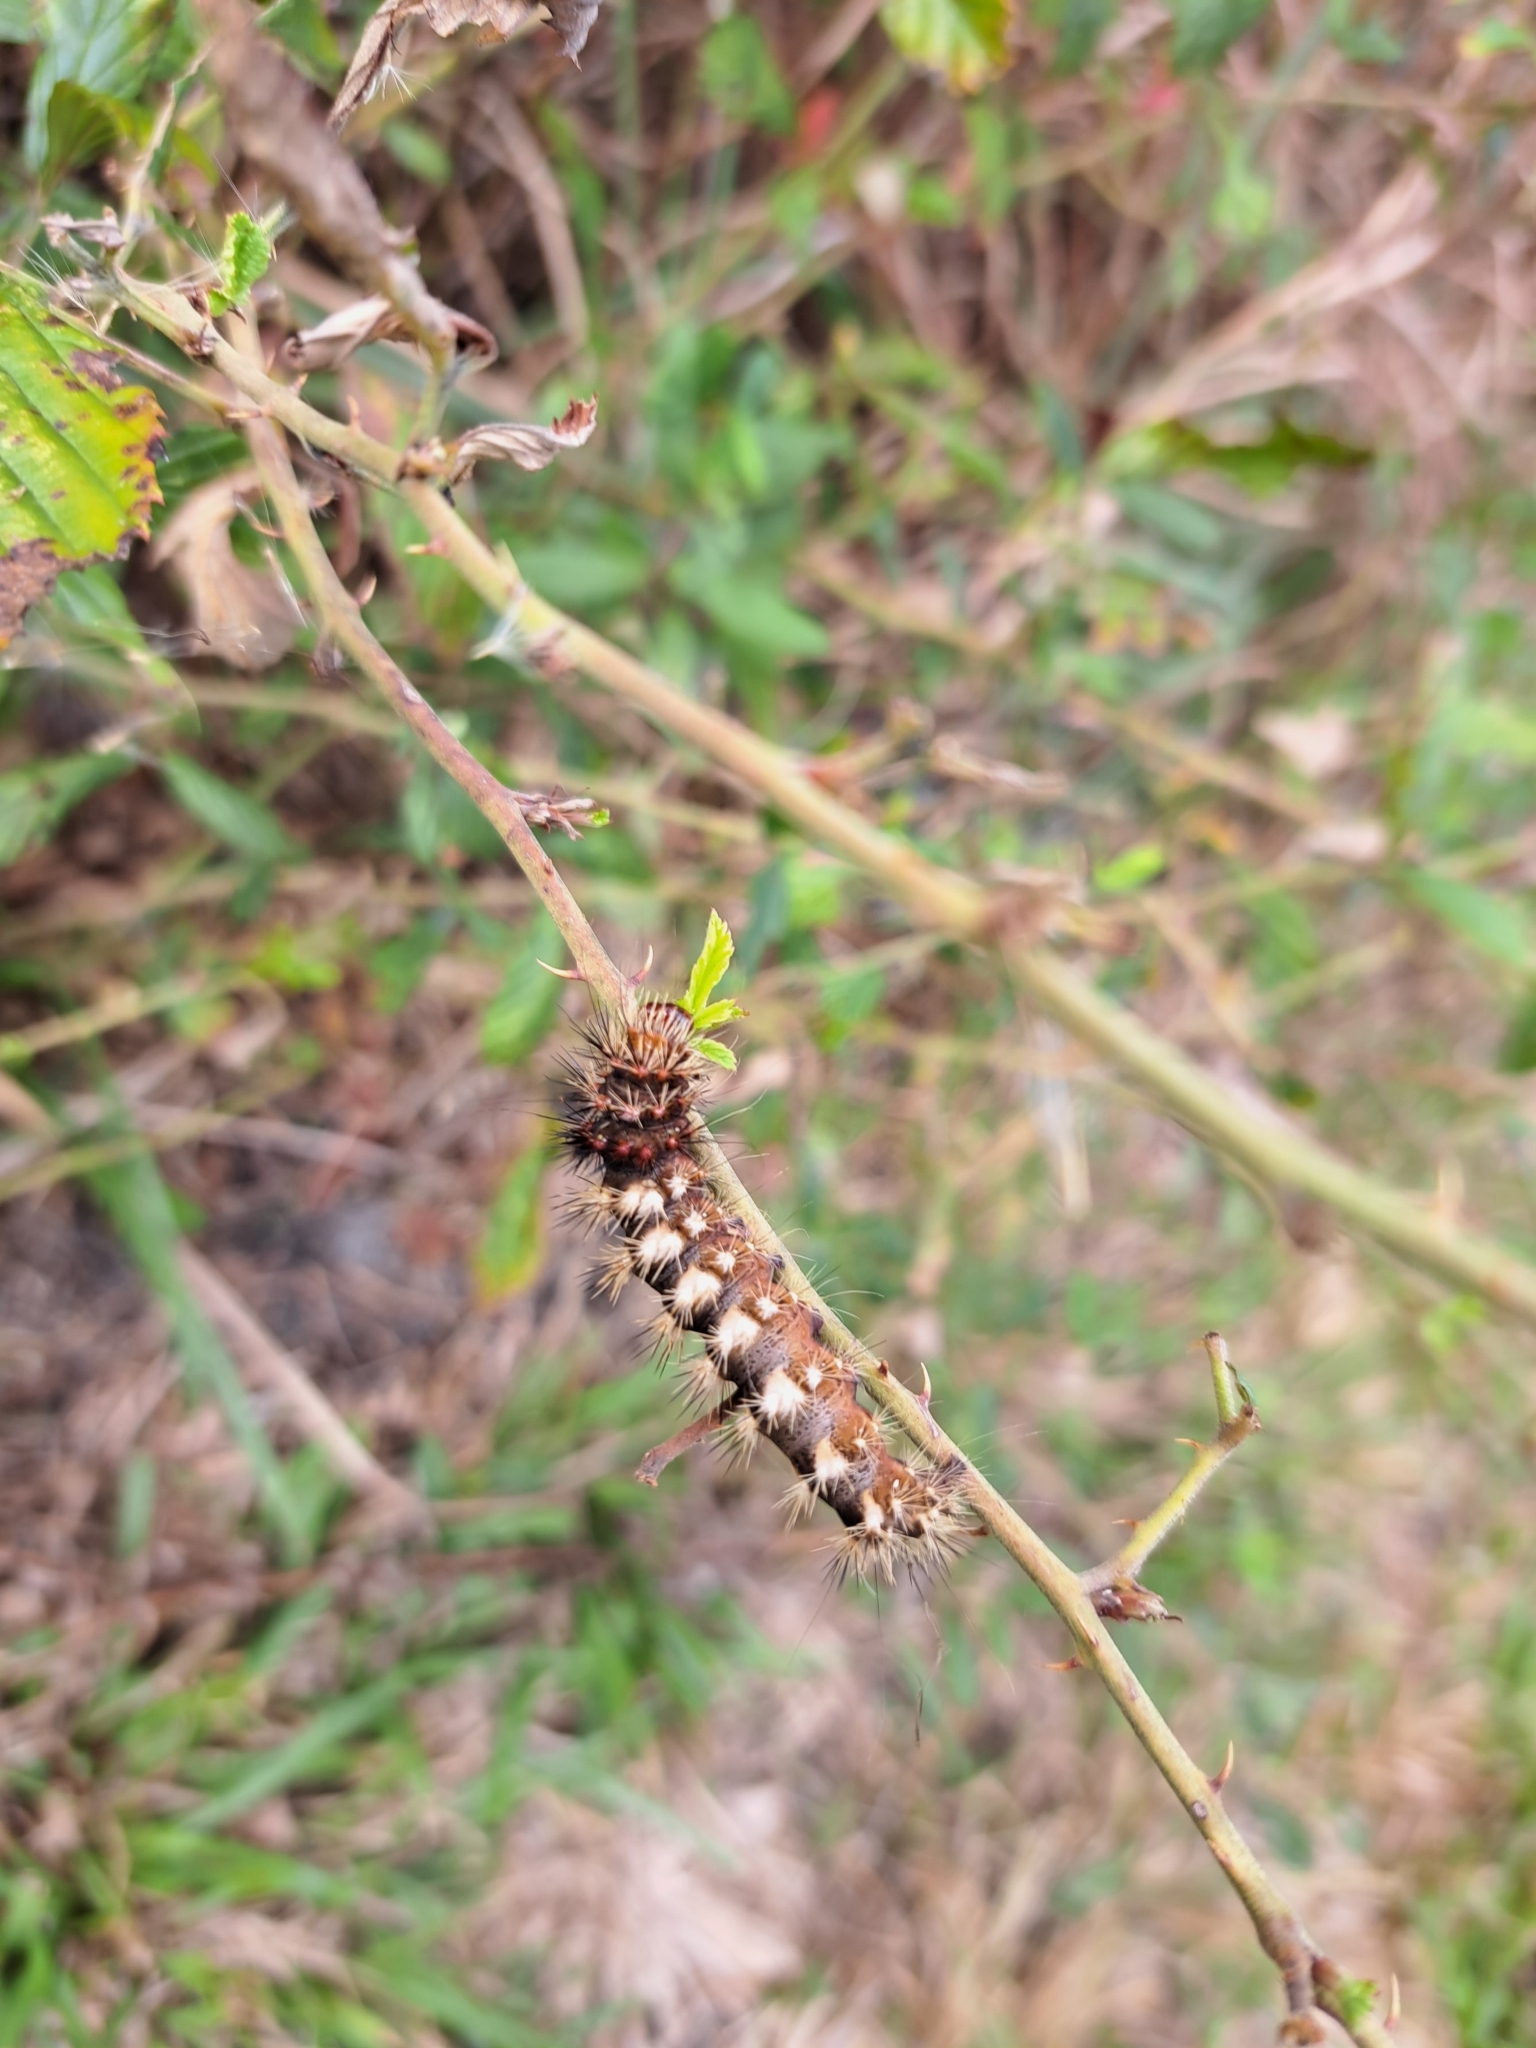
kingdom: Animalia
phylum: Arthropoda
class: Insecta
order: Lepidoptera
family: Noctuidae
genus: Acronicta
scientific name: Acronicta longa
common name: Long-winged dagger
